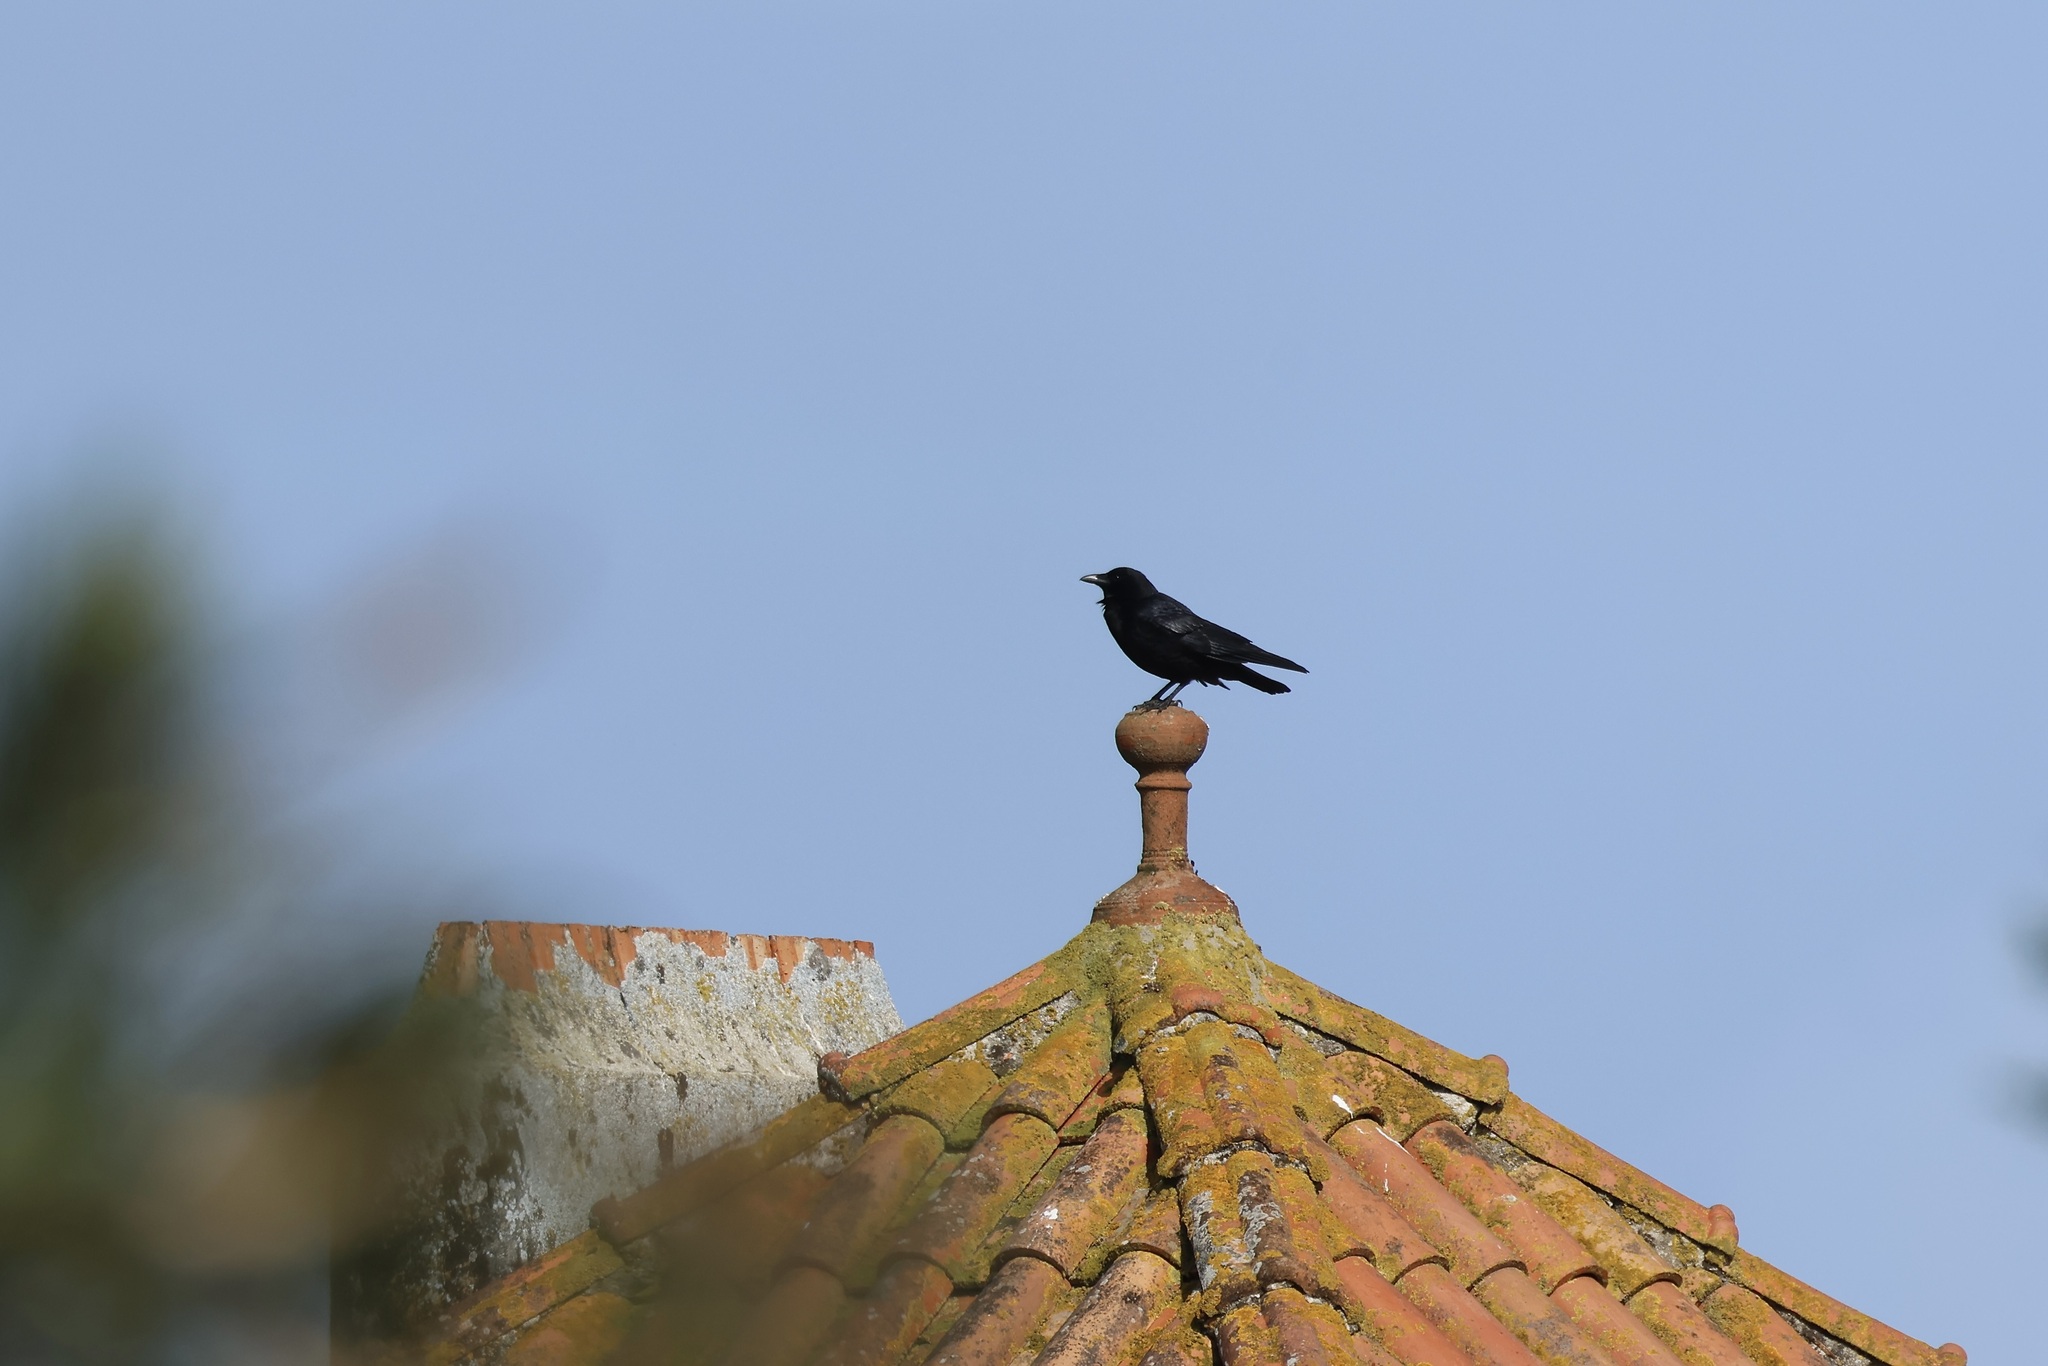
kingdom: Animalia
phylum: Chordata
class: Aves
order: Passeriformes
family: Corvidae
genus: Corvus
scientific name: Corvus corone
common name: Carrion crow
